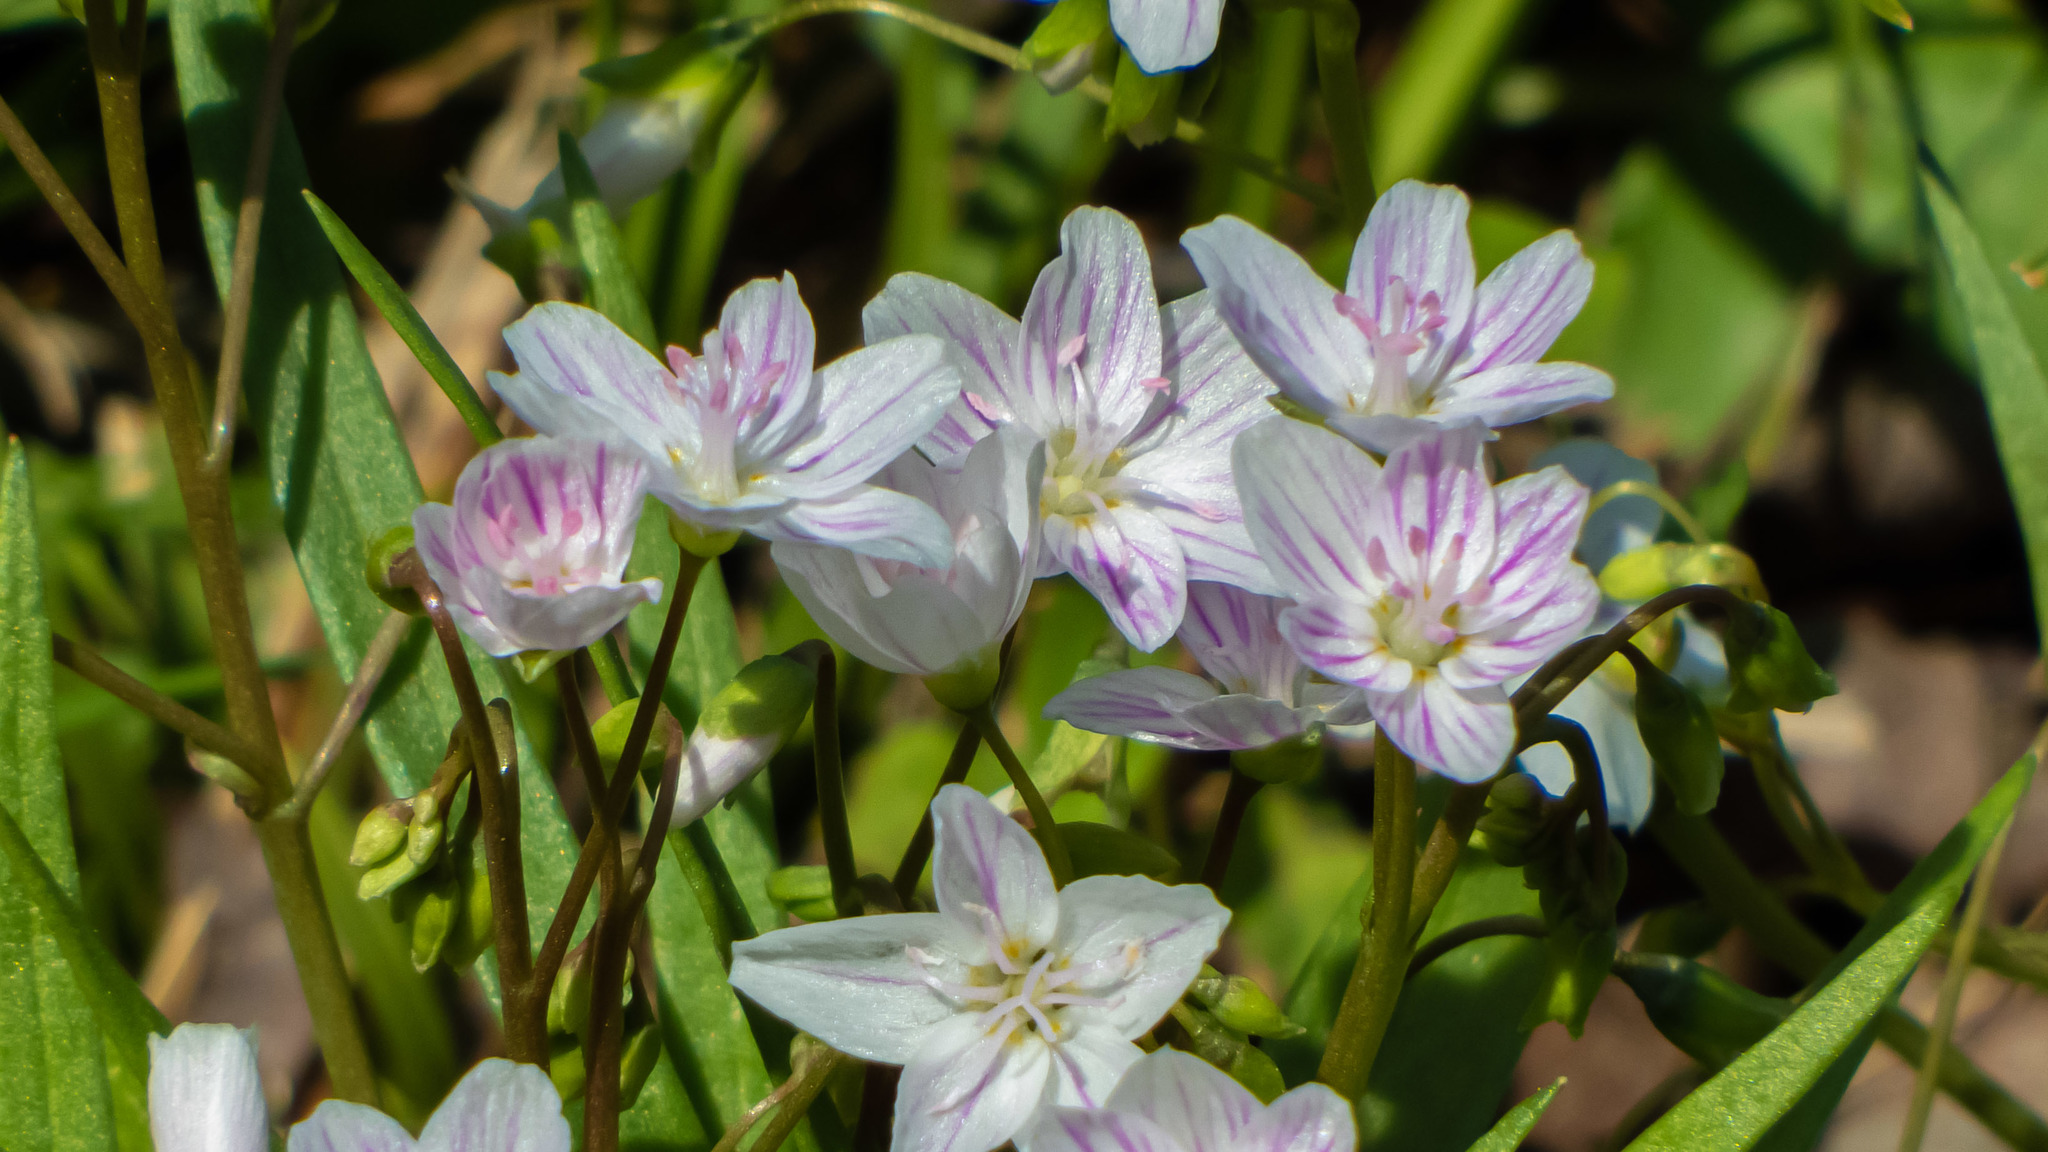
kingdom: Plantae
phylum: Tracheophyta
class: Magnoliopsida
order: Caryophyllales
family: Montiaceae
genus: Claytonia
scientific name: Claytonia virginica
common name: Virginia springbeauty
